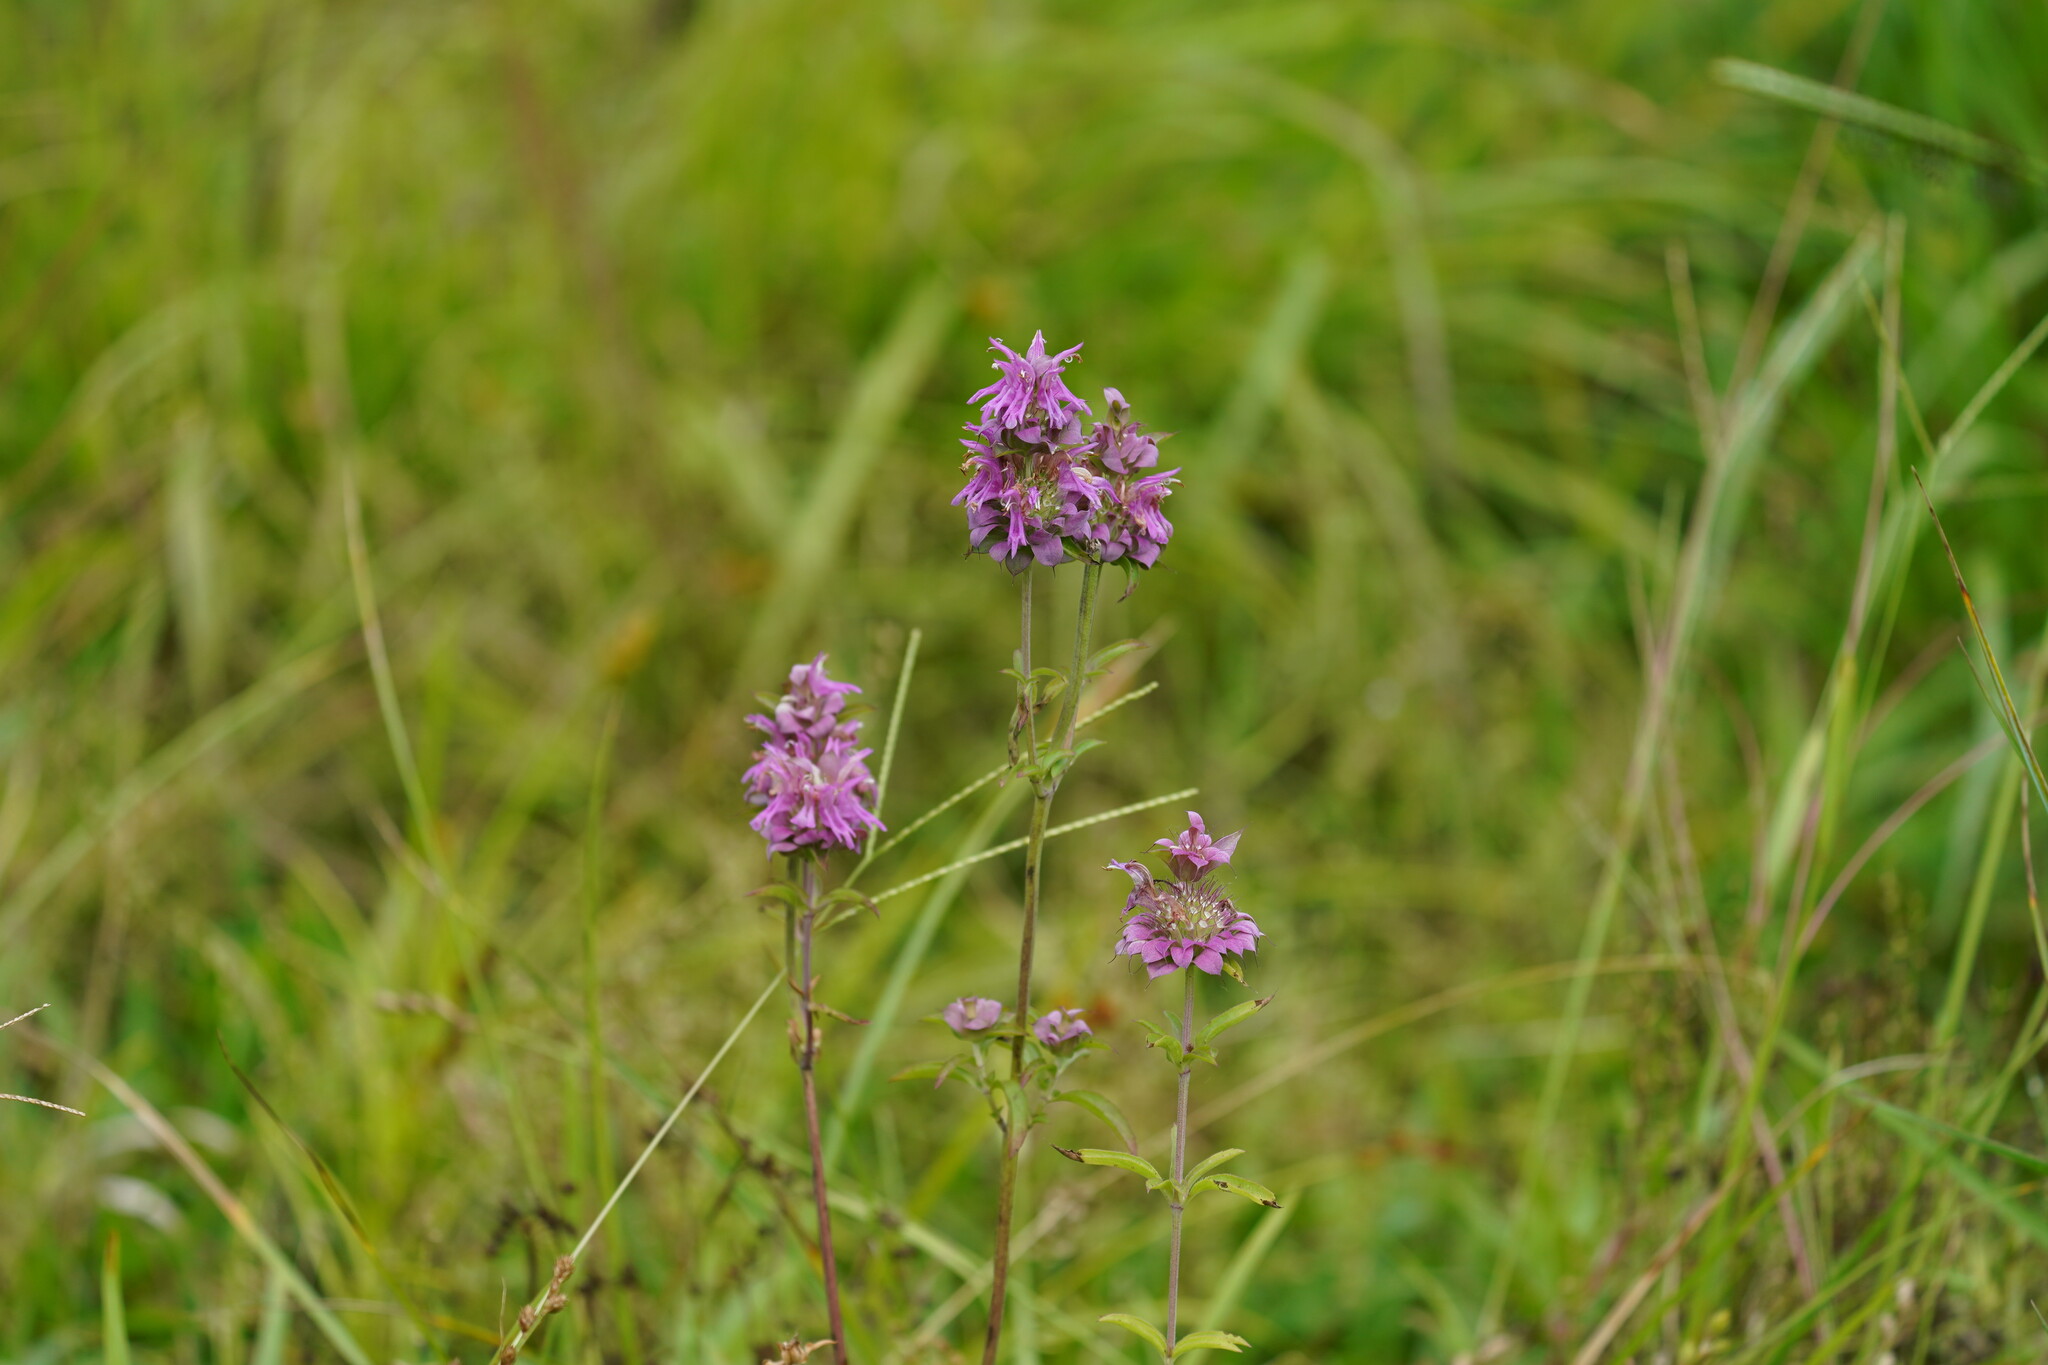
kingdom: Plantae
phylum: Tracheophyta
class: Magnoliopsida
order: Lamiales
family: Lamiaceae
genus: Monarda
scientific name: Monarda citriodora
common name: Lemon beebalm
